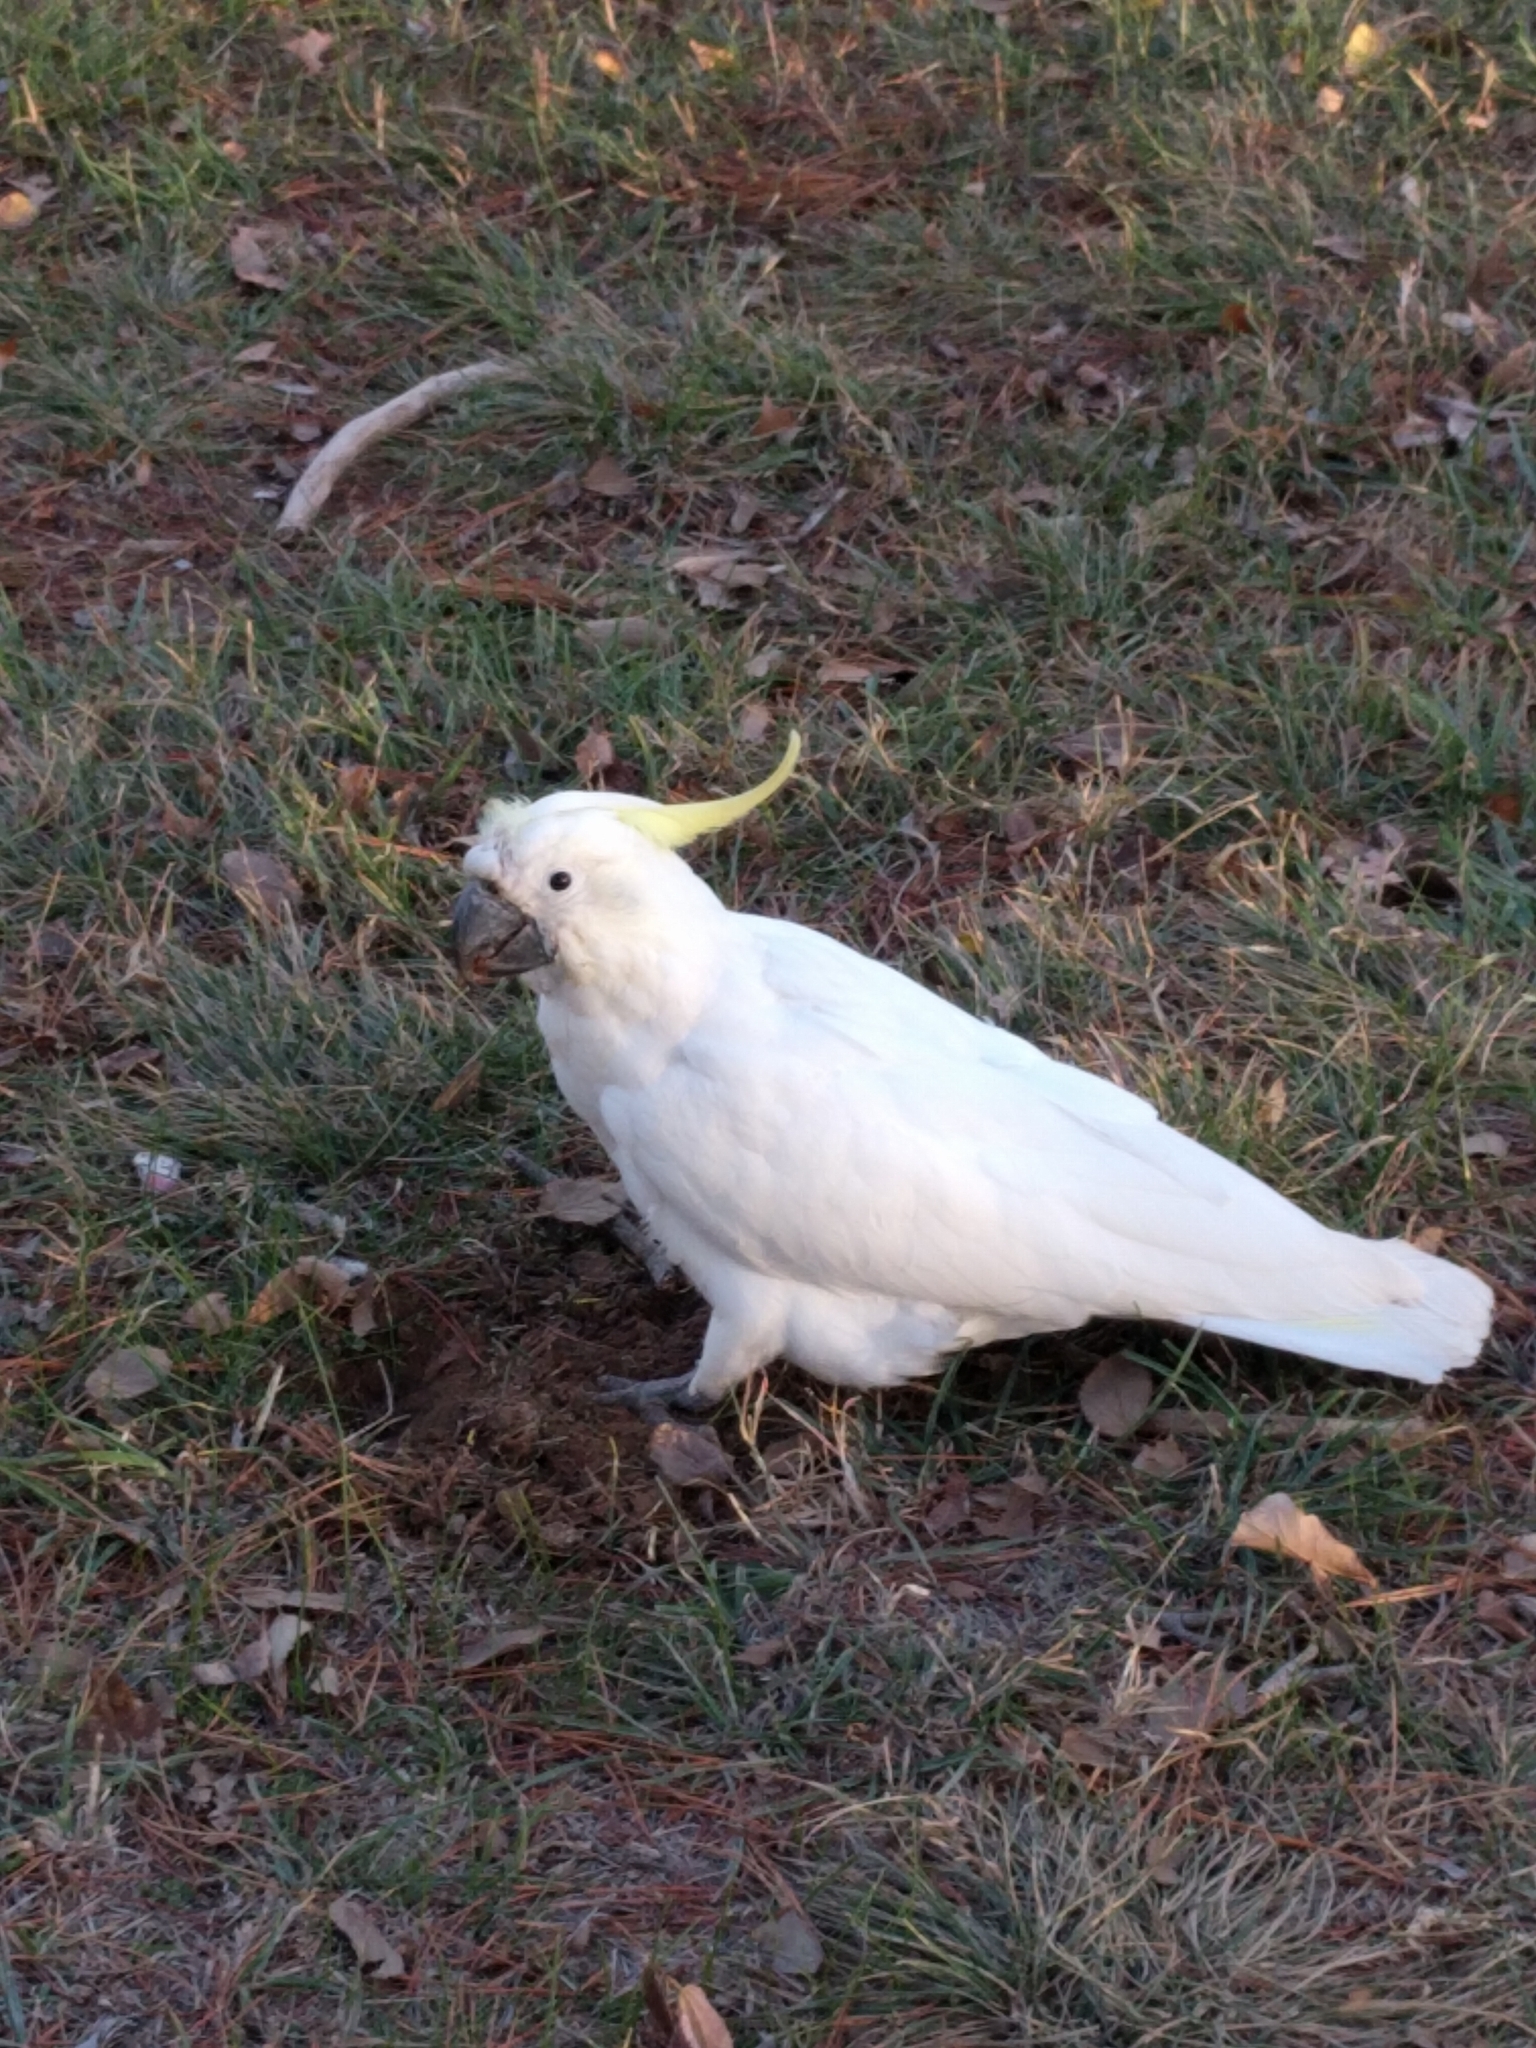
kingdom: Animalia
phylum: Chordata
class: Aves
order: Psittaciformes
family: Psittacidae
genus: Cacatua
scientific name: Cacatua galerita
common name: Sulphur-crested cockatoo
